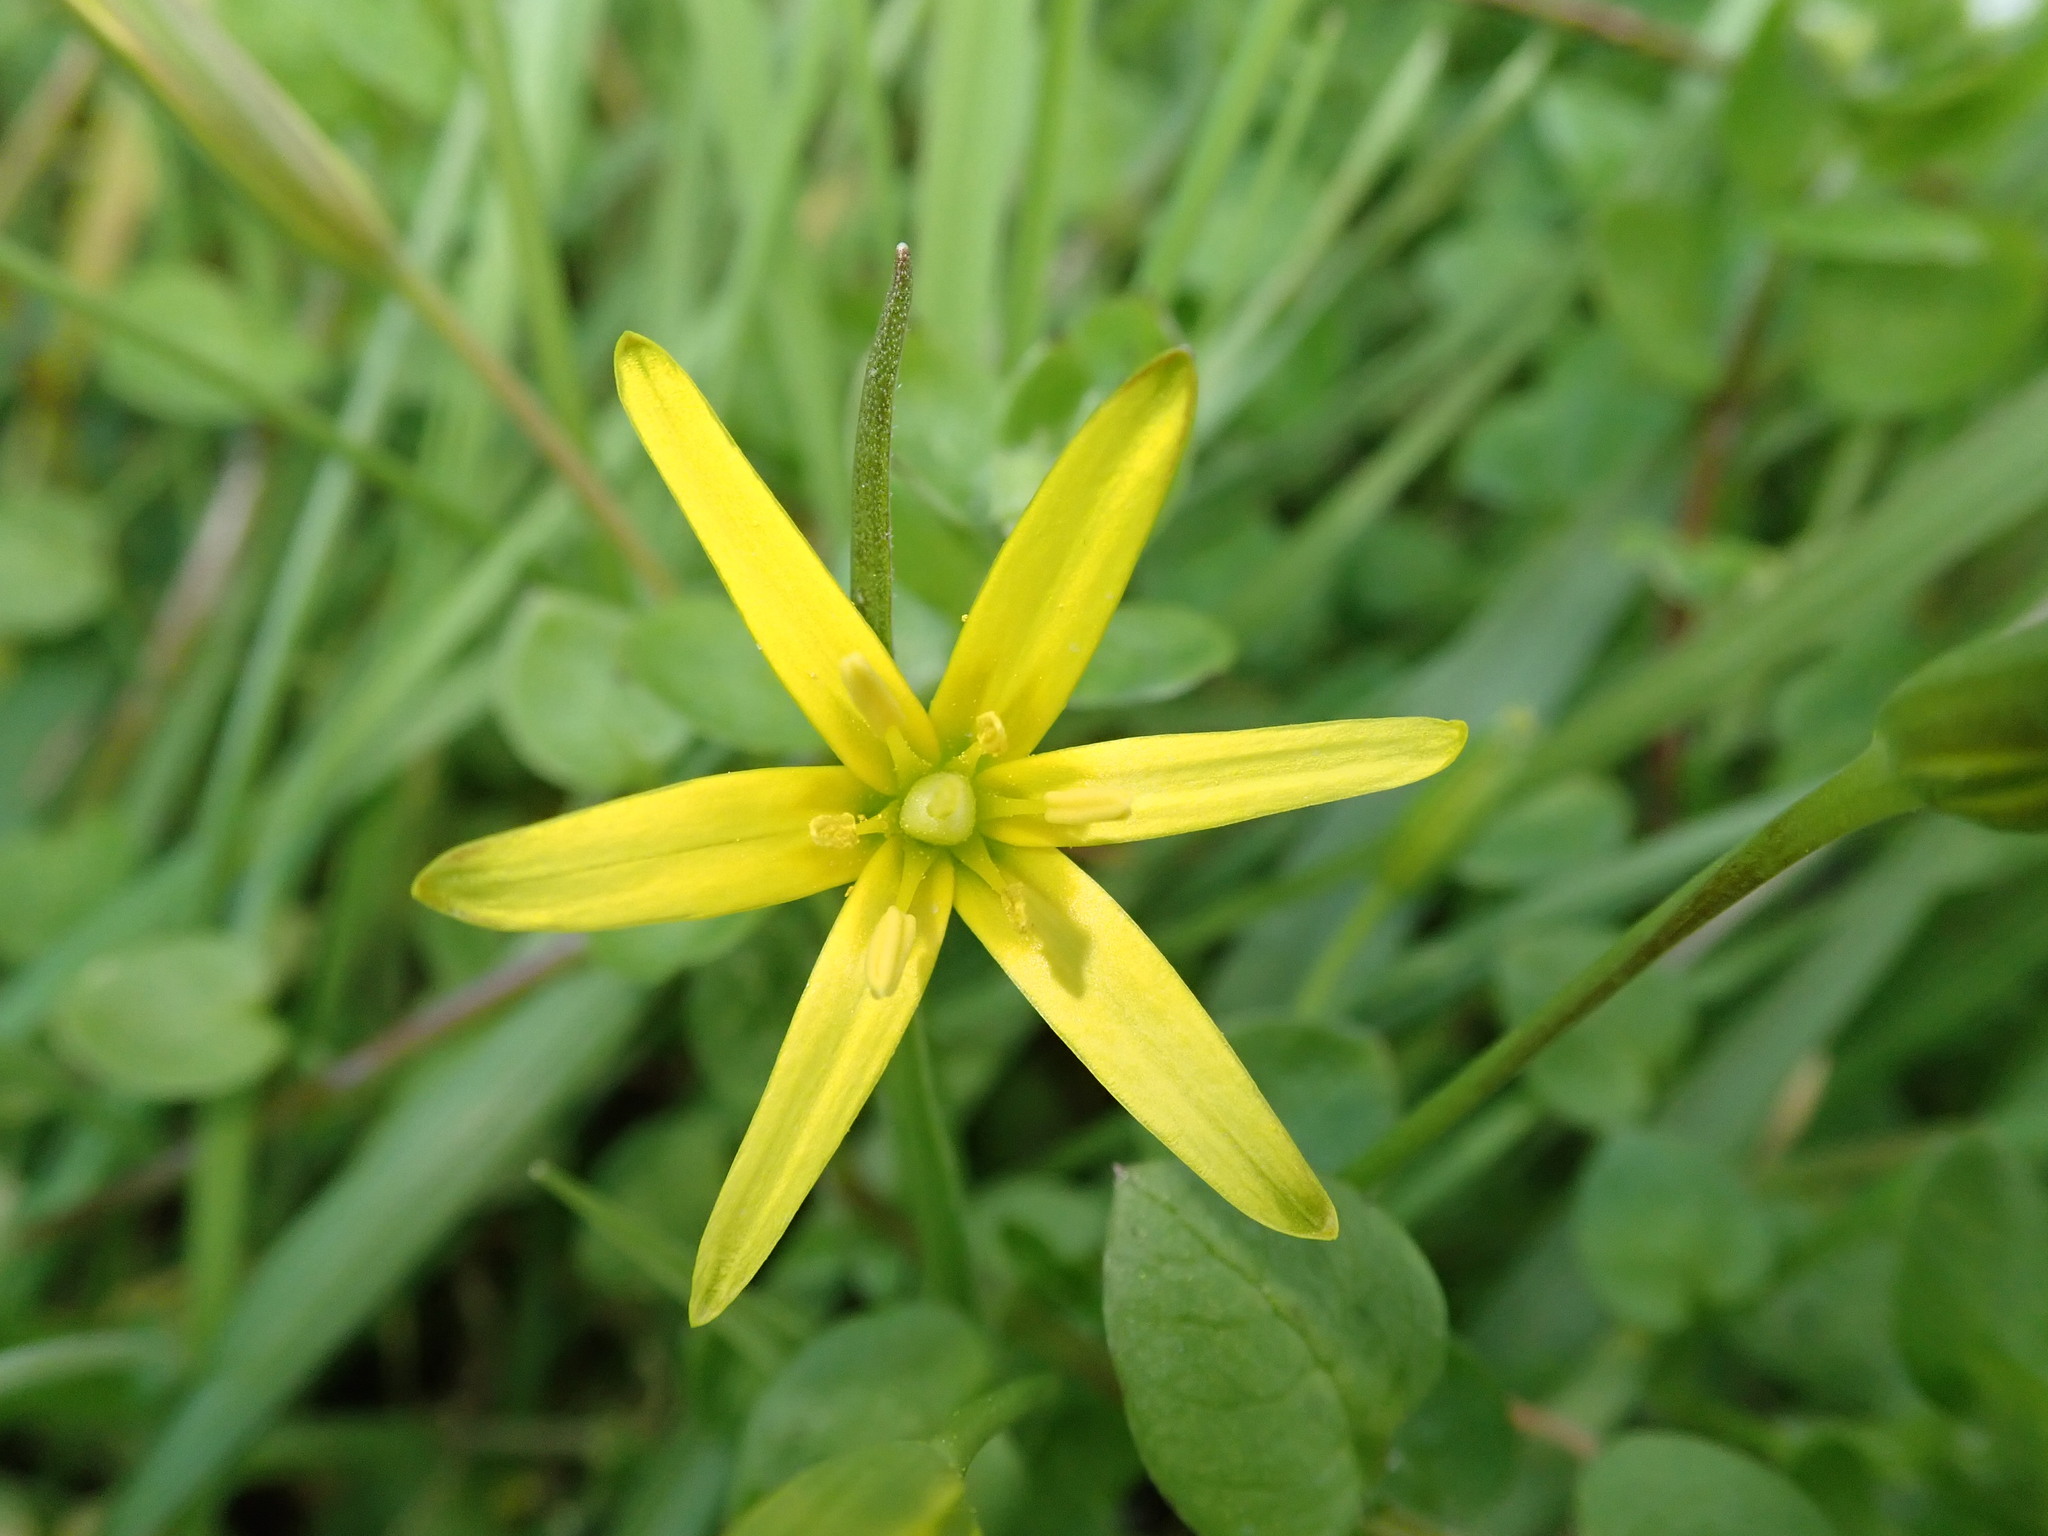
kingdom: Plantae
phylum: Tracheophyta
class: Liliopsida
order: Liliales
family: Liliaceae
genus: Gagea
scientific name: Gagea lutea
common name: Yellow star-of-bethlehem
